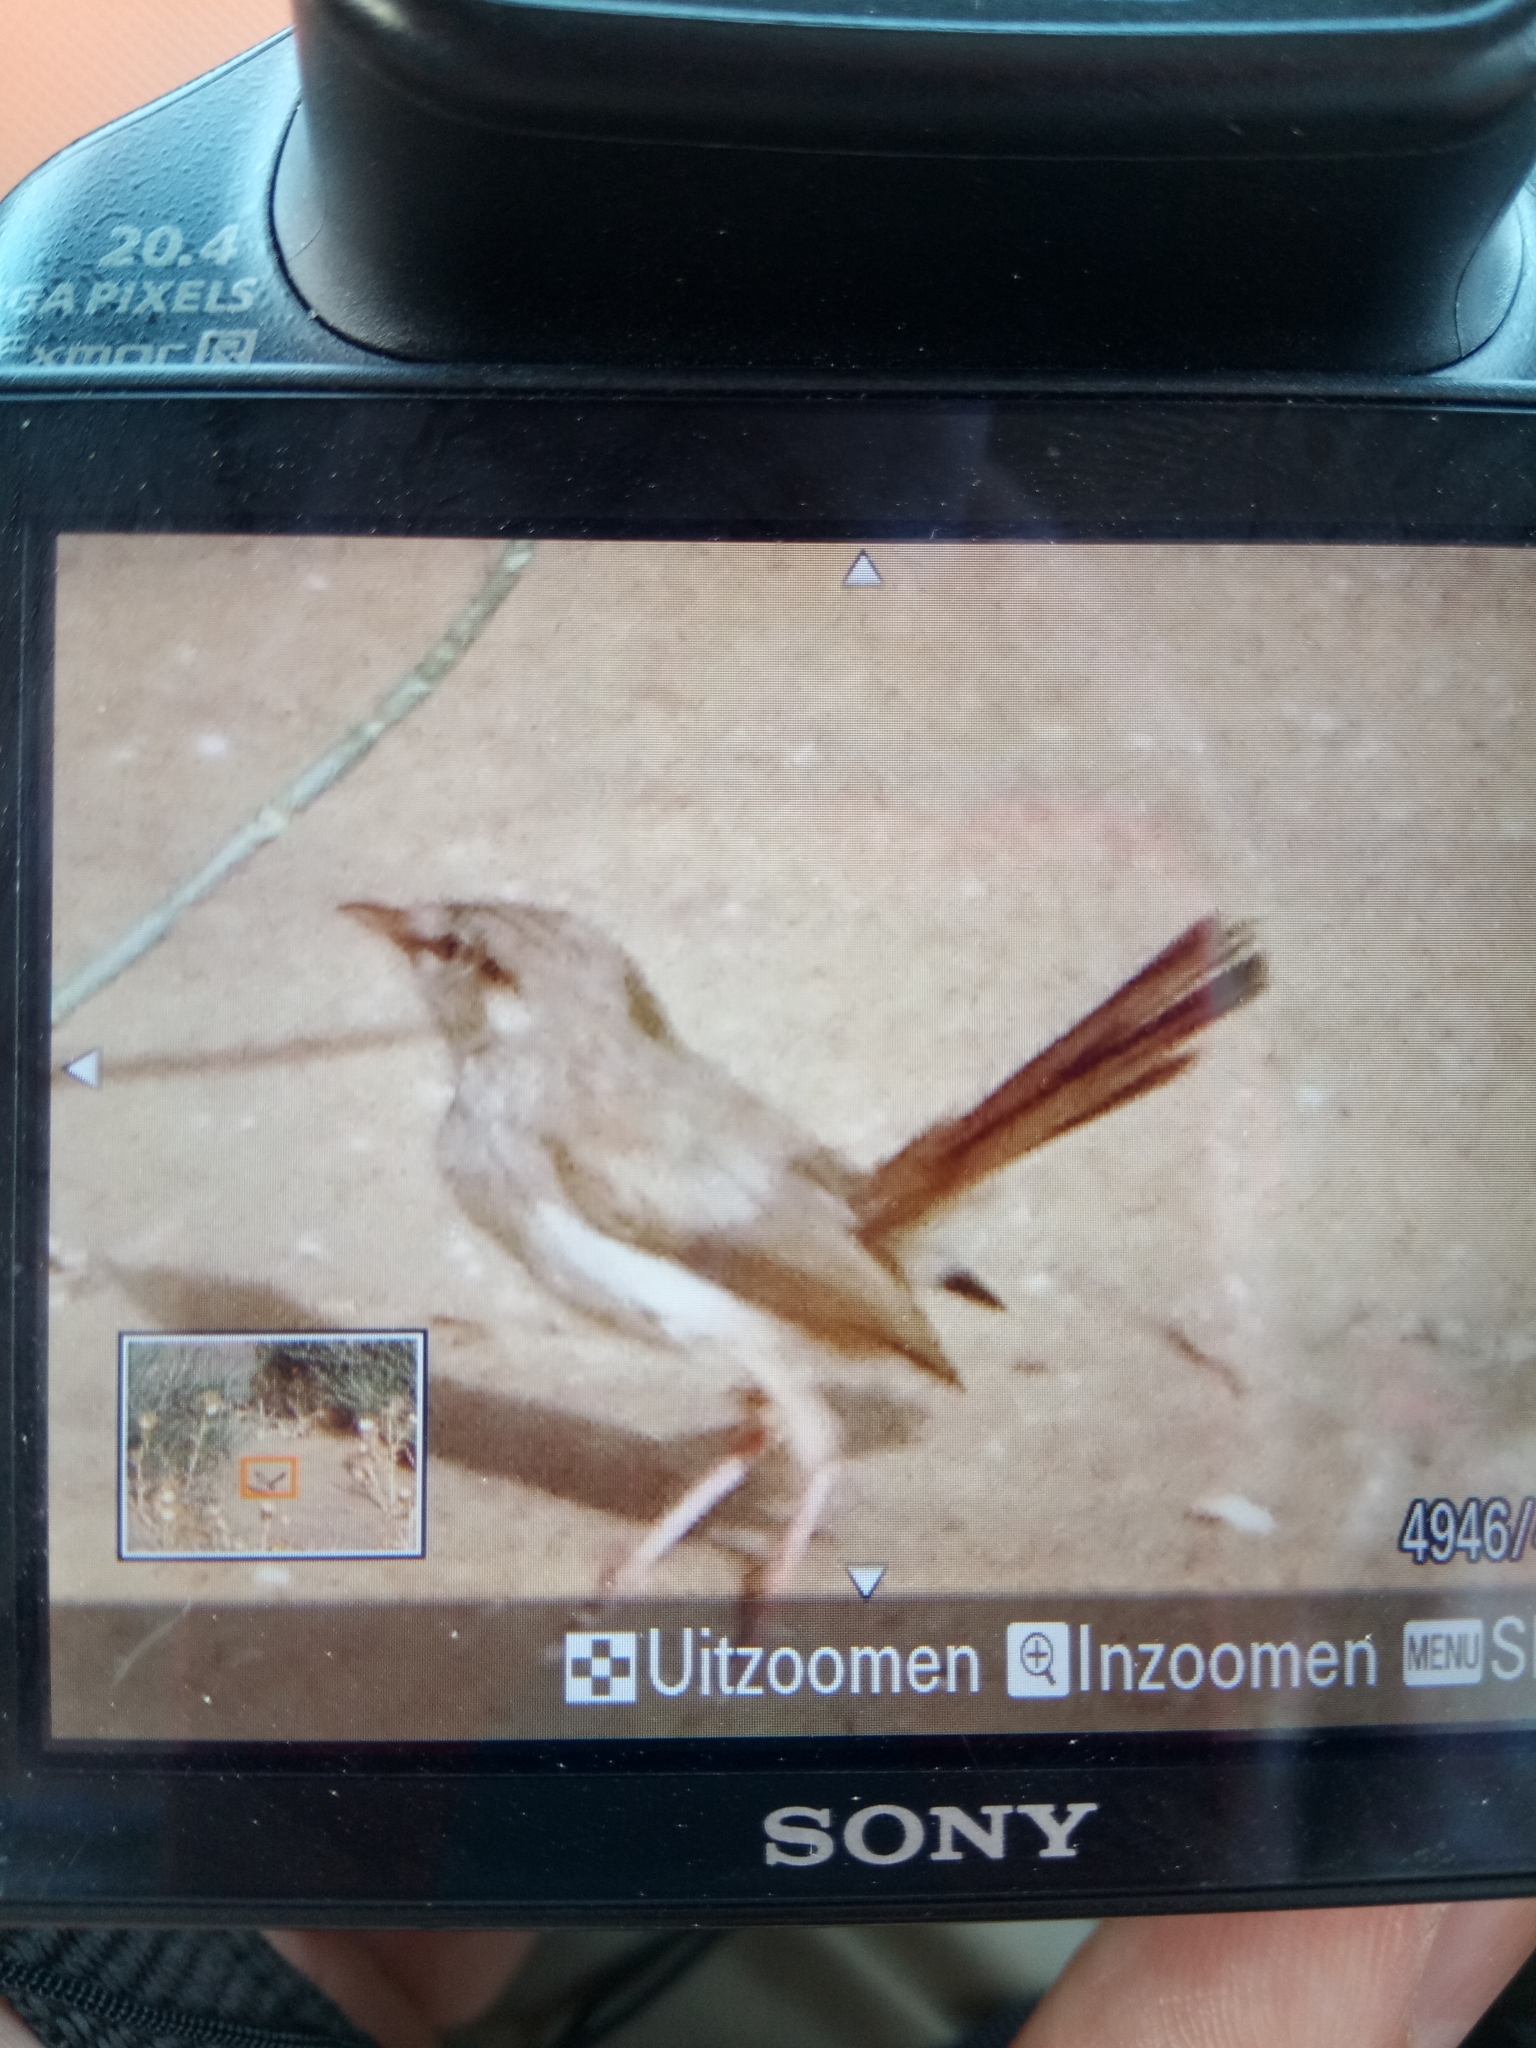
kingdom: Animalia
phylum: Chordata
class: Aves
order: Passeriformes
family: Scotocercidae
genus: Scotocerca
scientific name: Scotocerca inquieta
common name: Scrub warbler
